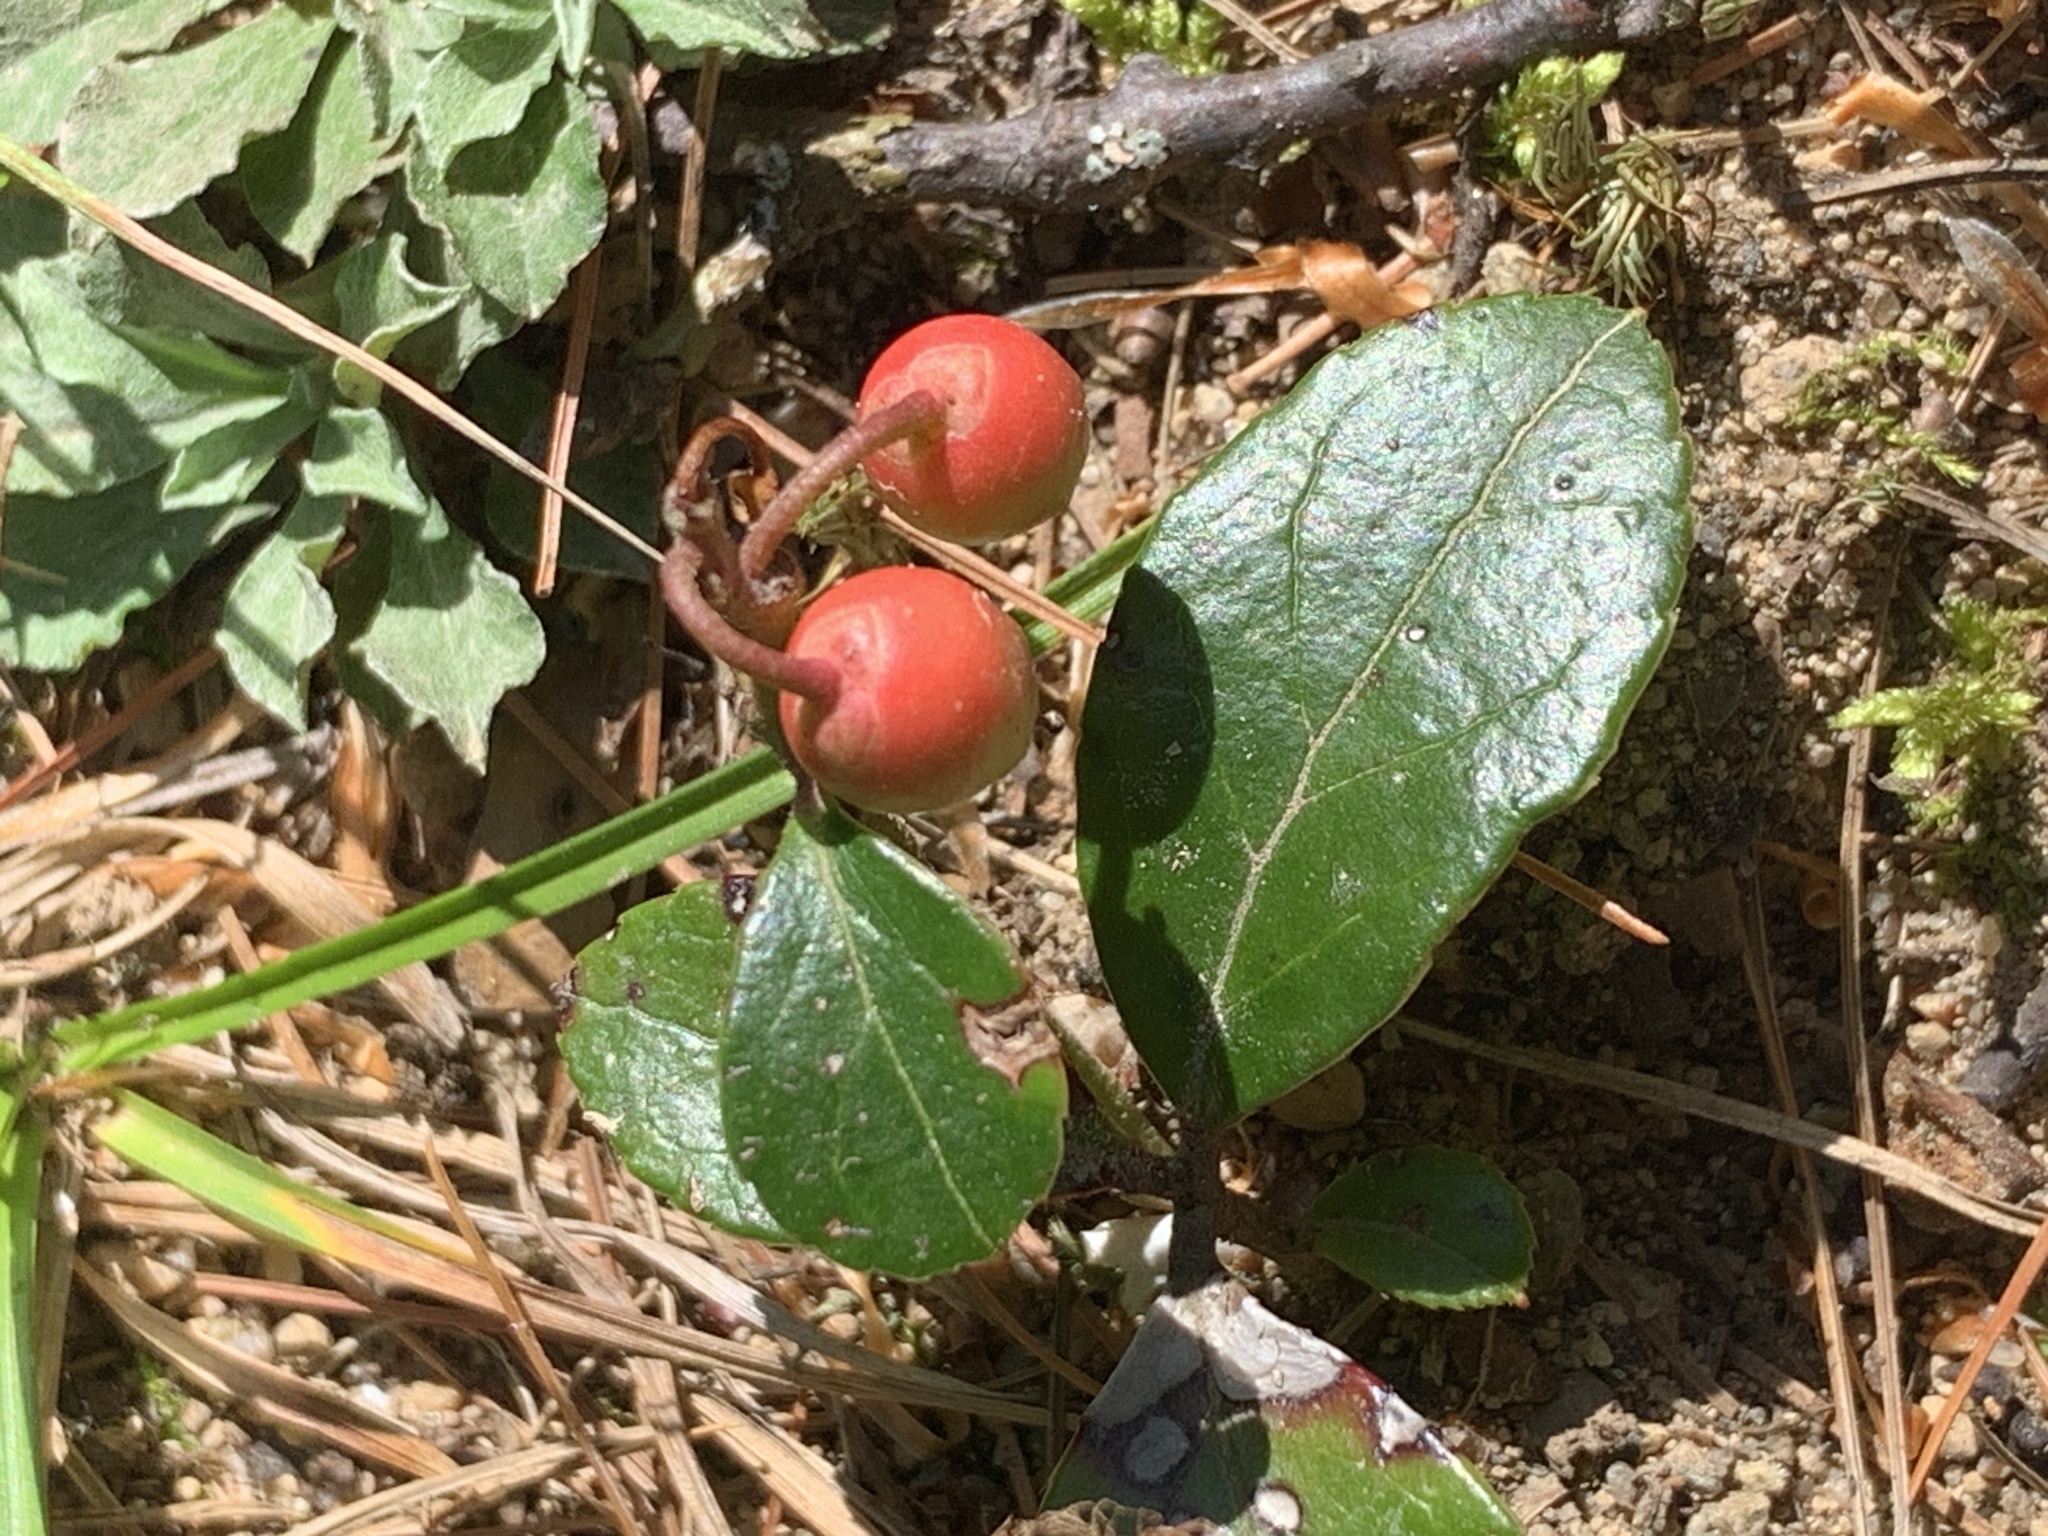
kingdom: Plantae
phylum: Tracheophyta
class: Magnoliopsida
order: Ericales
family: Ericaceae
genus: Gaultheria
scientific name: Gaultheria procumbens
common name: Checkerberry
